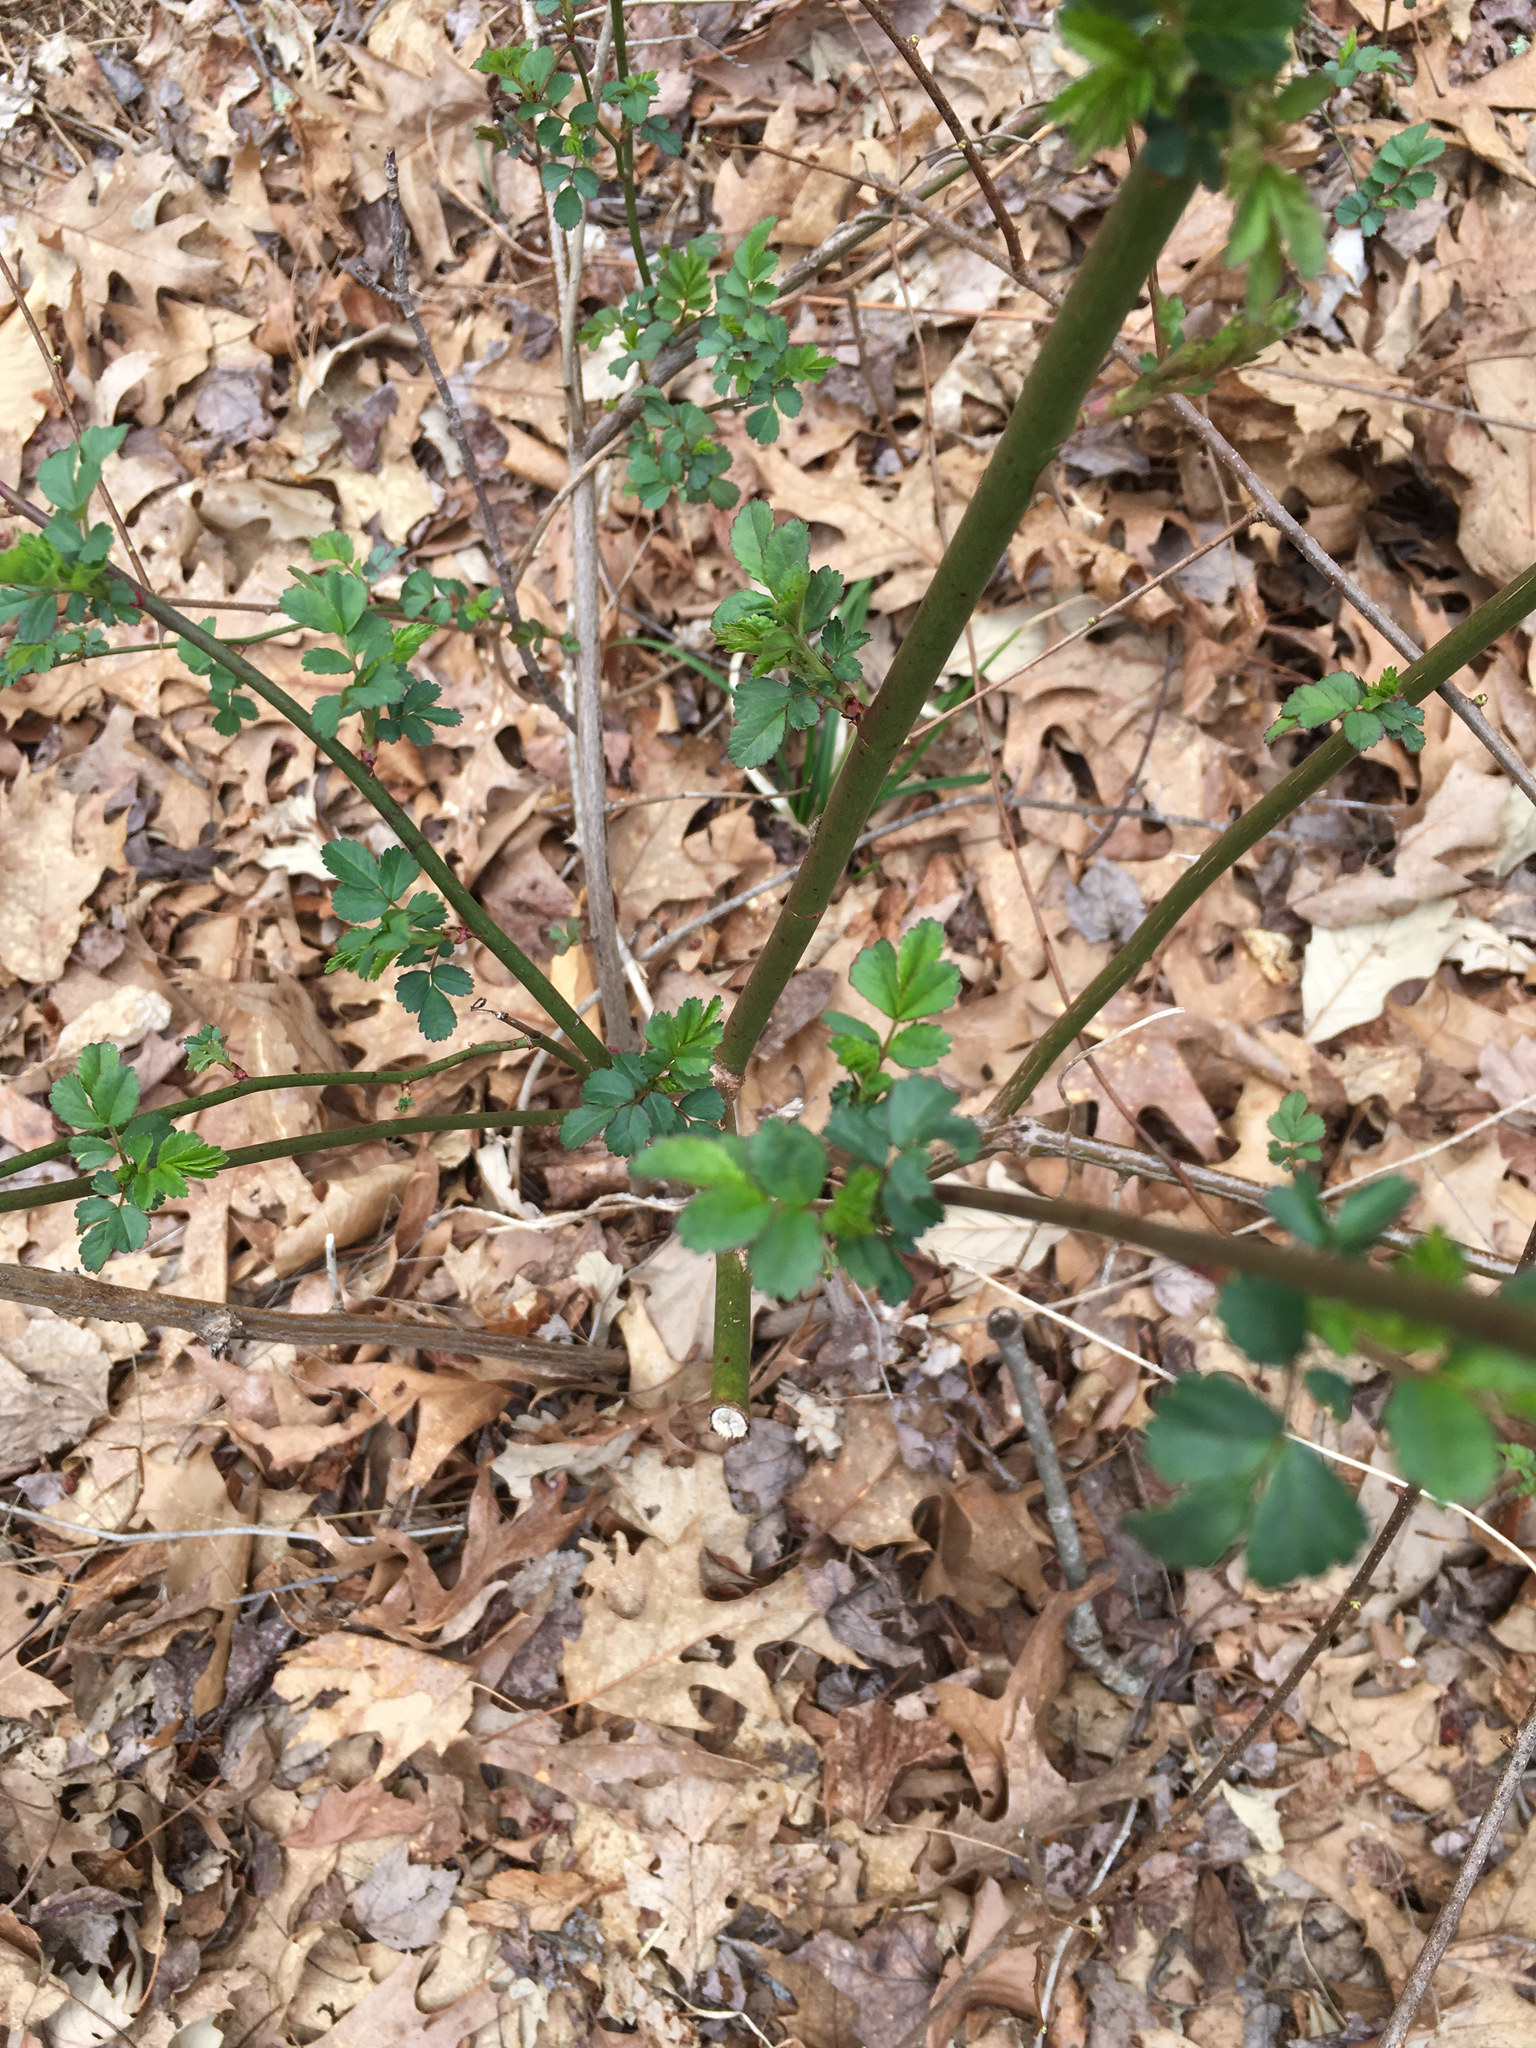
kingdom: Plantae
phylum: Tracheophyta
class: Magnoliopsida
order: Rosales
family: Rosaceae
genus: Rosa
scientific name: Rosa multiflora
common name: Multiflora rose
